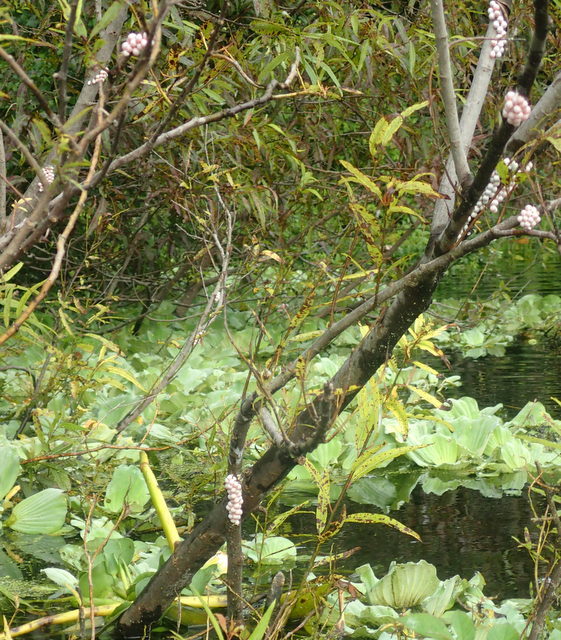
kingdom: Animalia
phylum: Mollusca
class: Gastropoda
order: Architaenioglossa
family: Ampullariidae
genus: Pomacea
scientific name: Pomacea paludosa
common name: Florida applesnail
